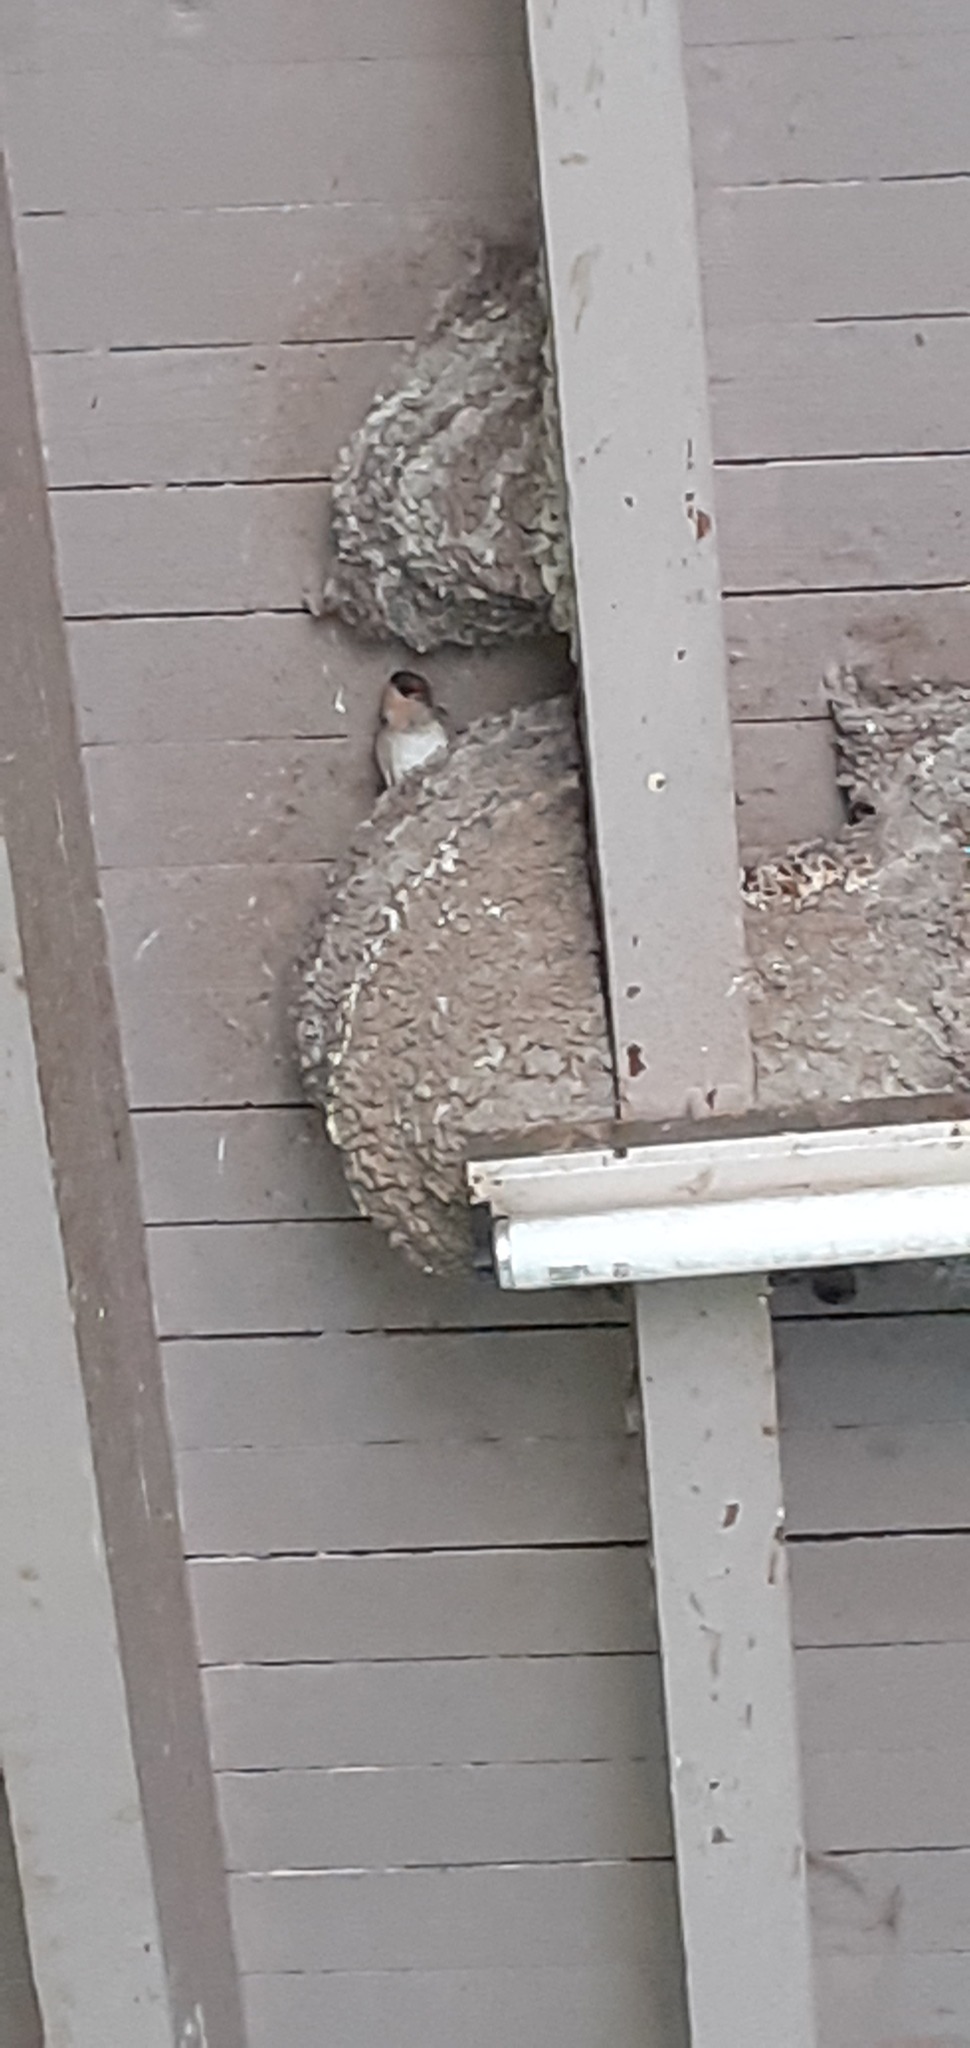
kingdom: Animalia
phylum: Chordata
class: Aves
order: Passeriformes
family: Hirundinidae
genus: Petrochelidon
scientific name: Petrochelidon fulva
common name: Cave swallow
